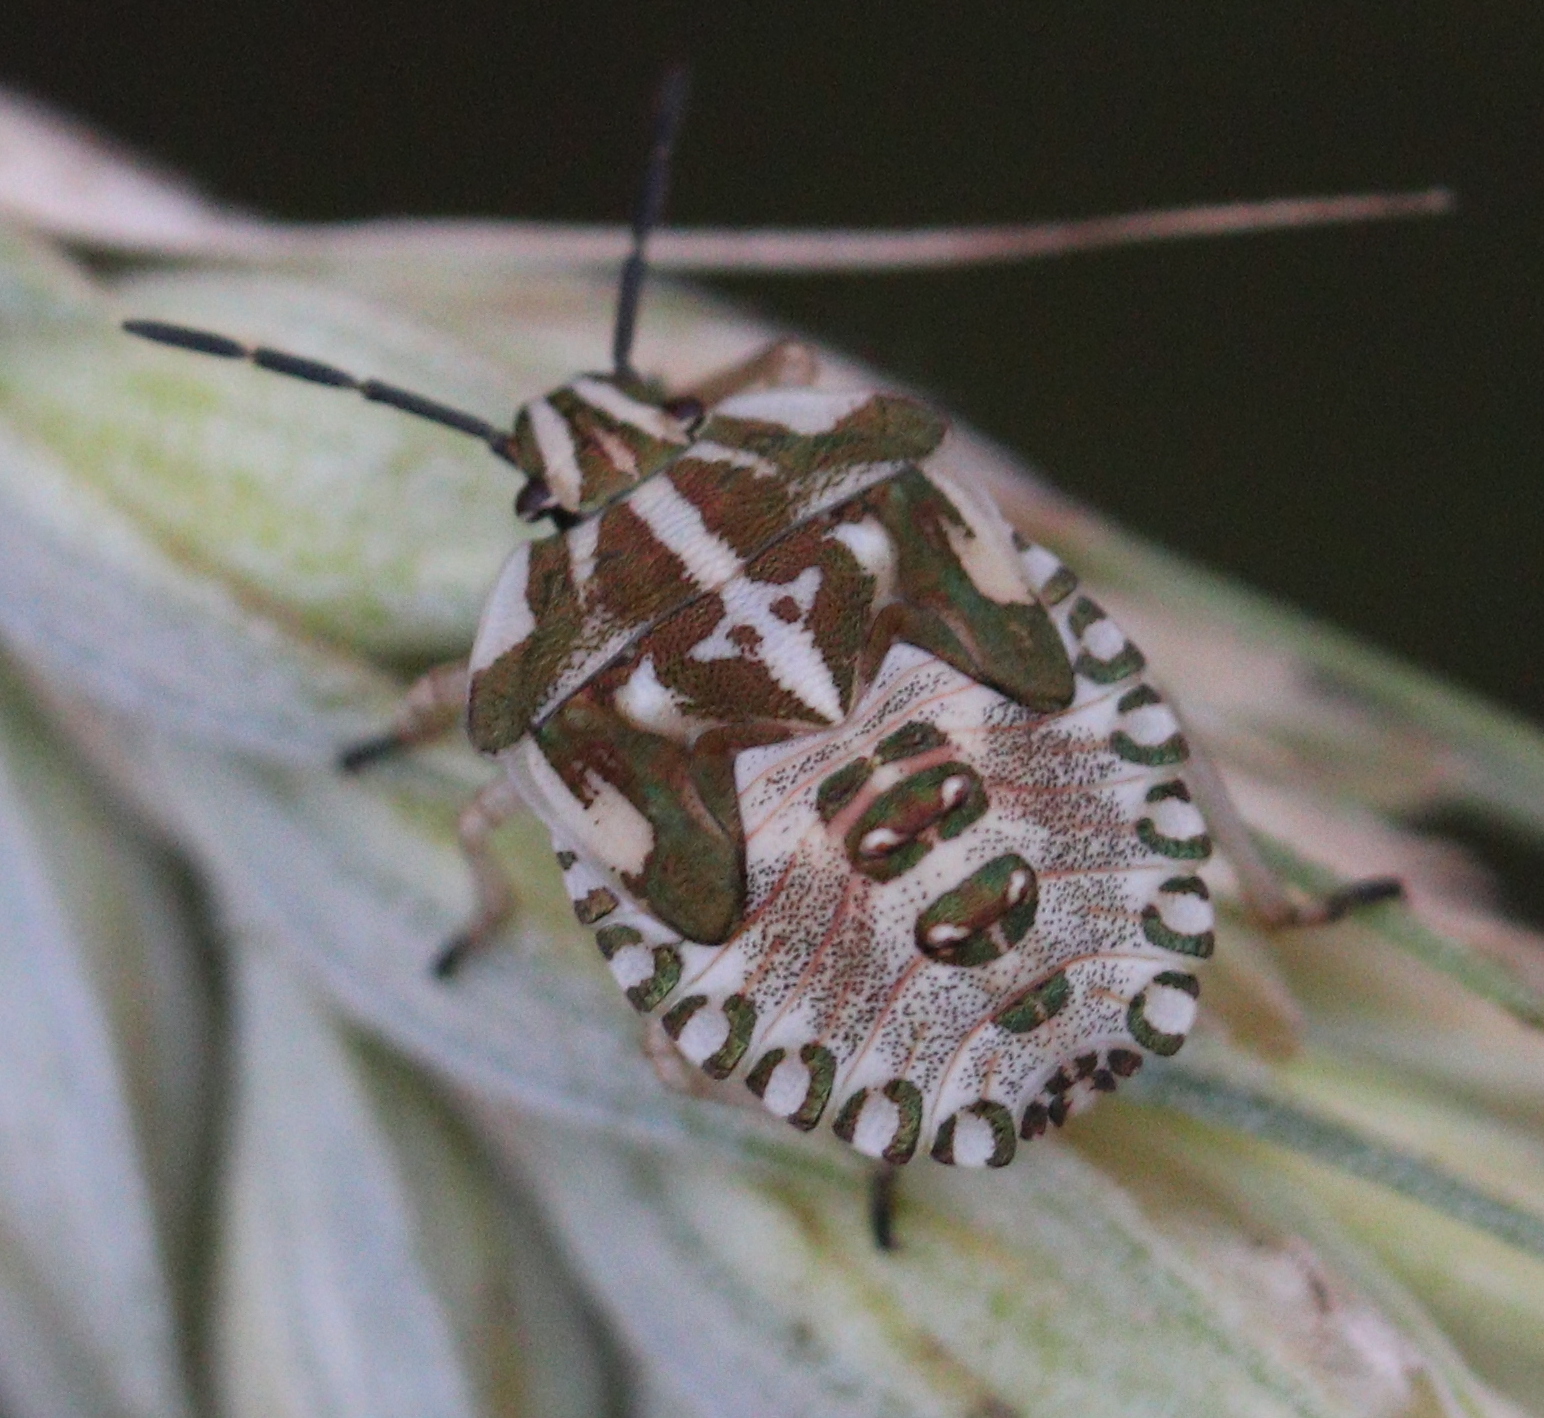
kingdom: Animalia
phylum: Arthropoda
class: Insecta
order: Hemiptera
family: Pentatomidae
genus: Carpocoris
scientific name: Carpocoris purpureipennis
